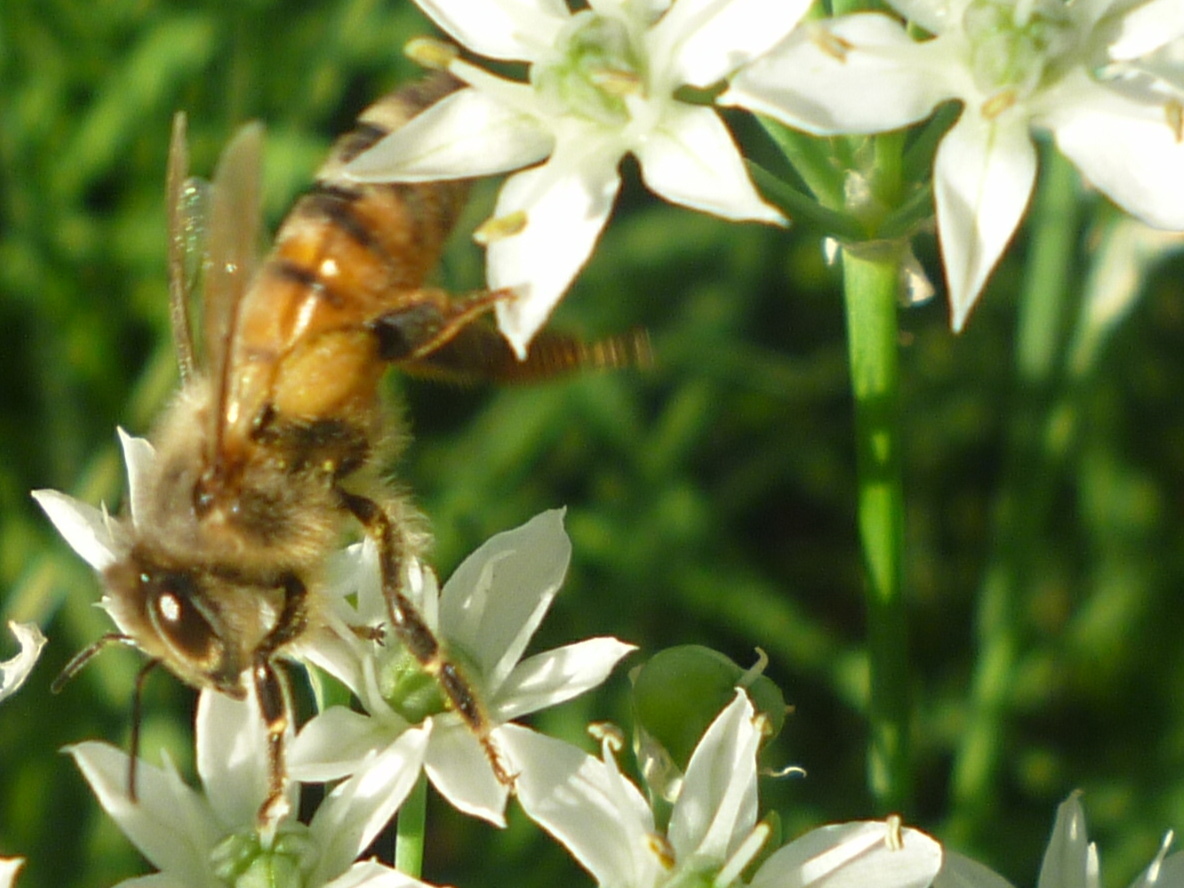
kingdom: Animalia
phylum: Arthropoda
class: Insecta
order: Hymenoptera
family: Apidae
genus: Apis
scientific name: Apis mellifera
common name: Honey bee
